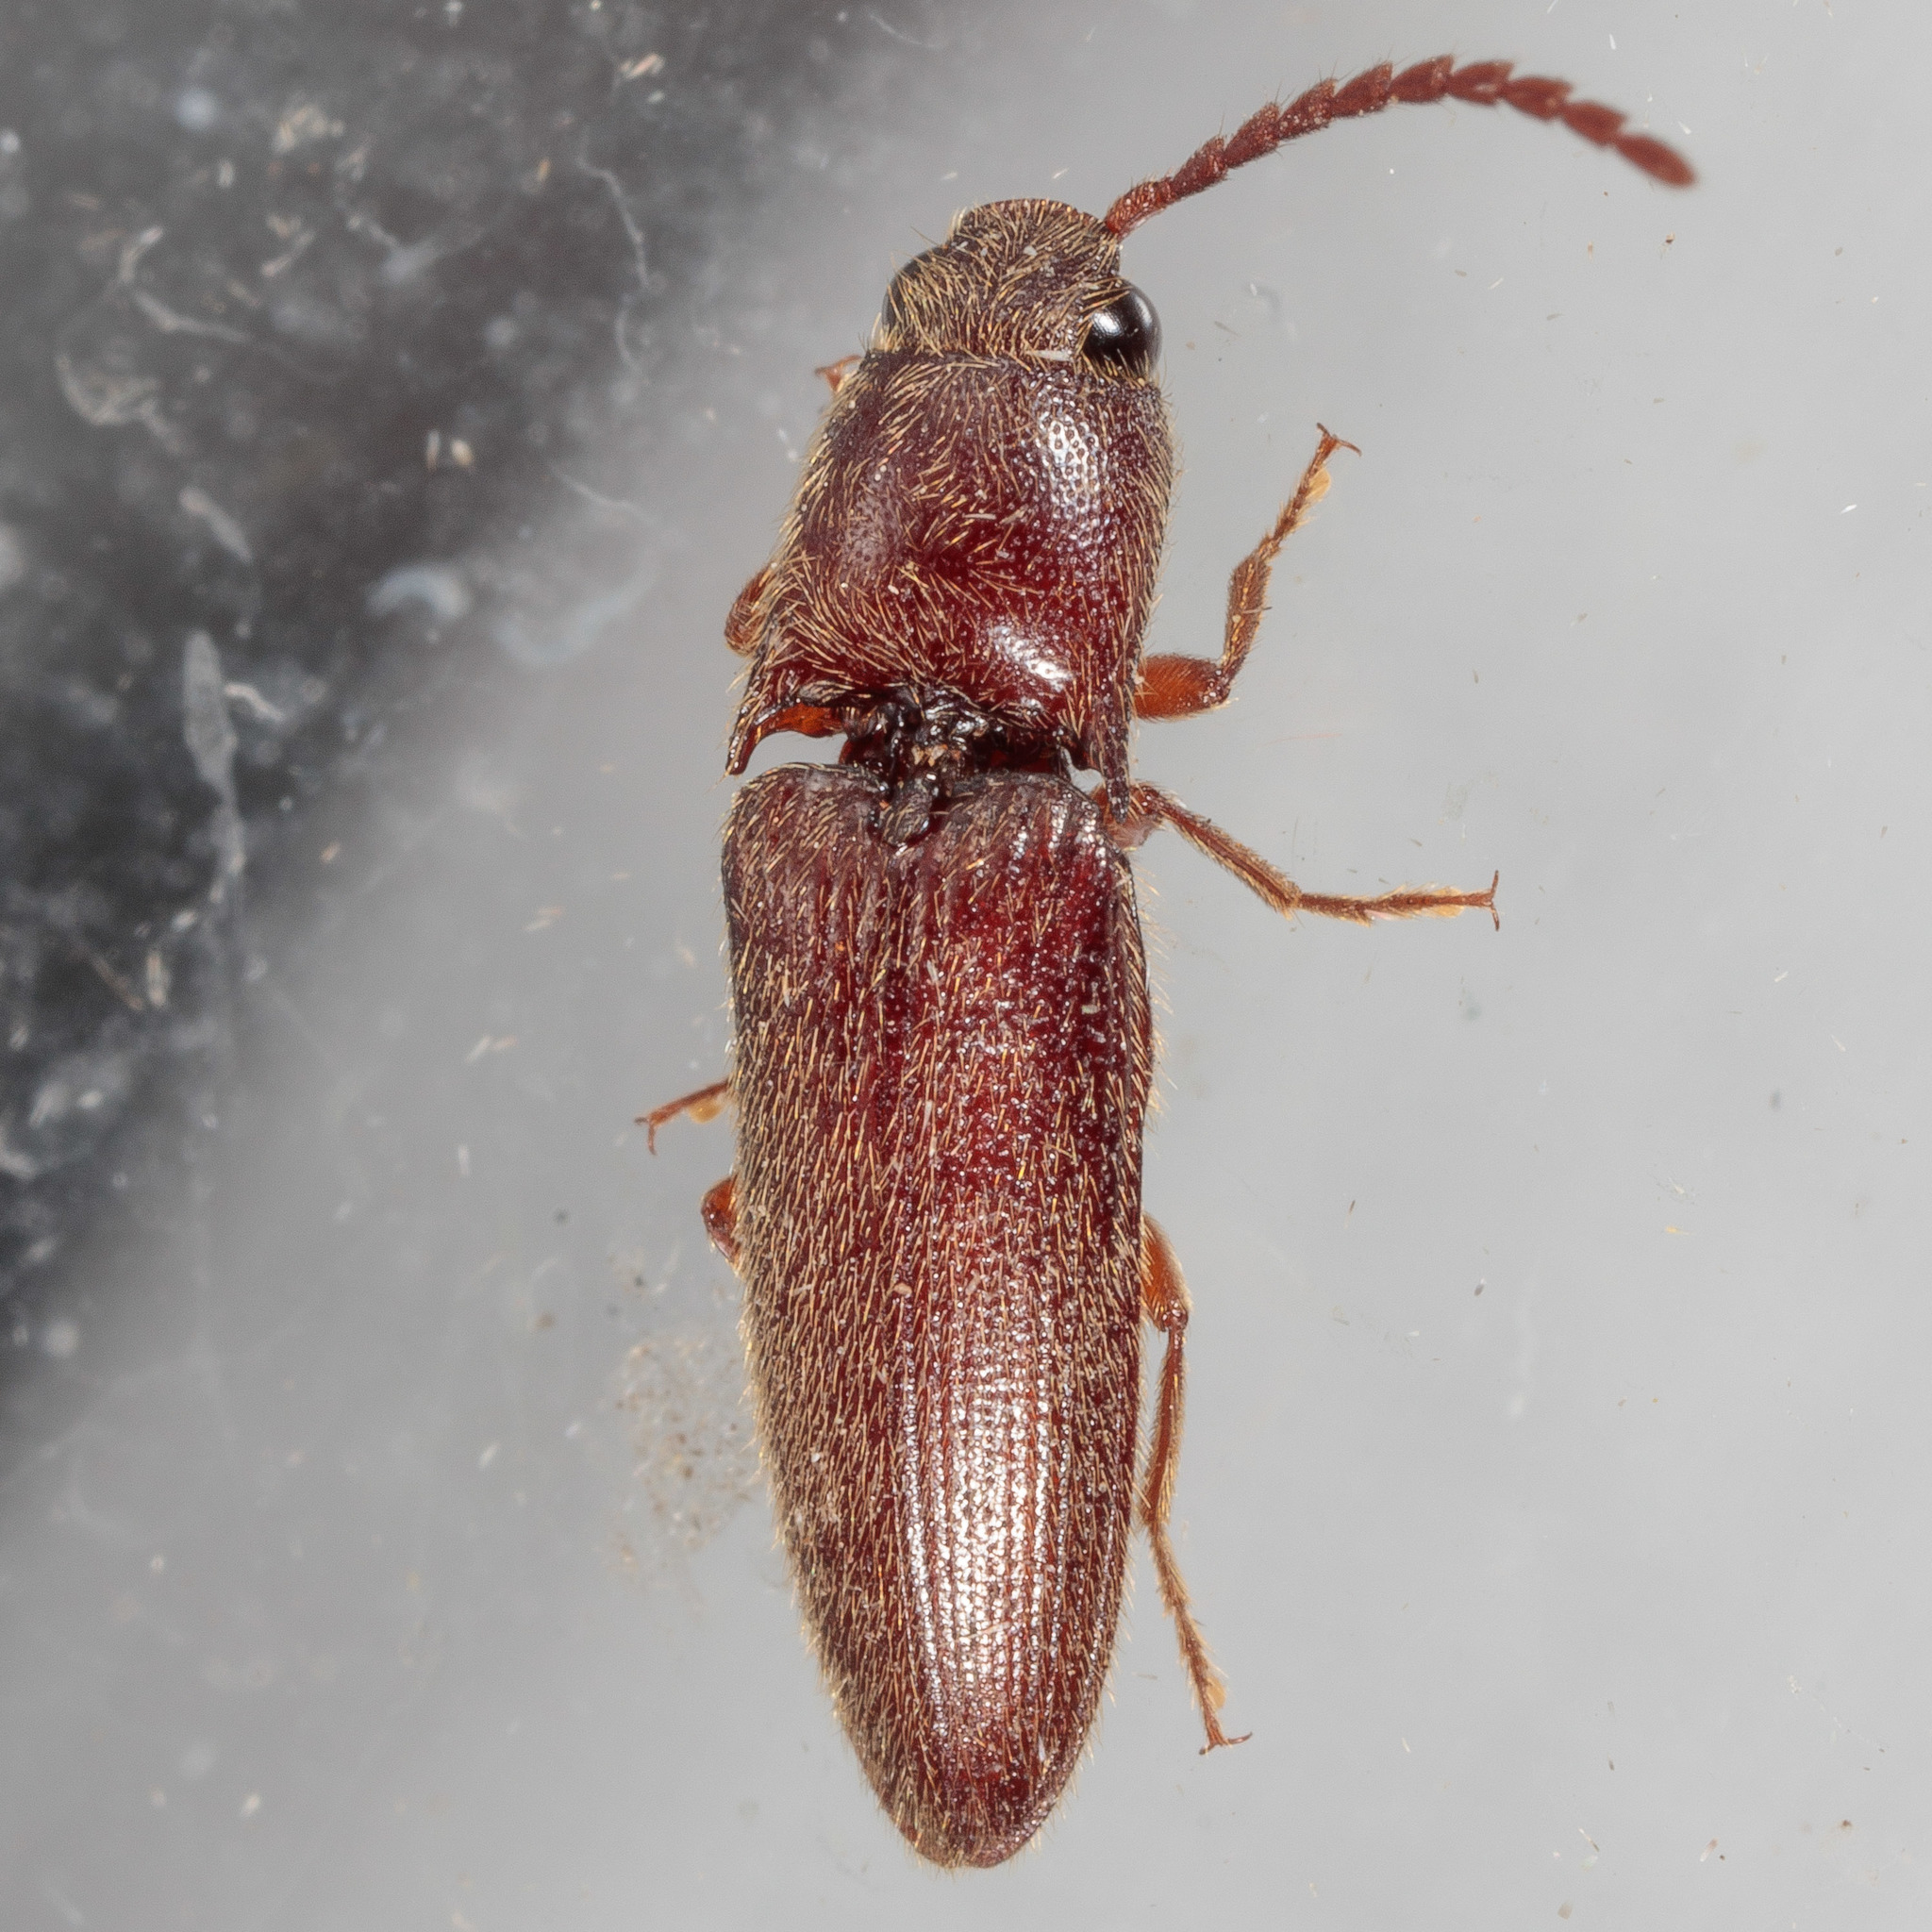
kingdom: Animalia
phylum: Arthropoda
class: Insecta
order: Coleoptera
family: Elateridae
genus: Dipropus
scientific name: Dipropus
